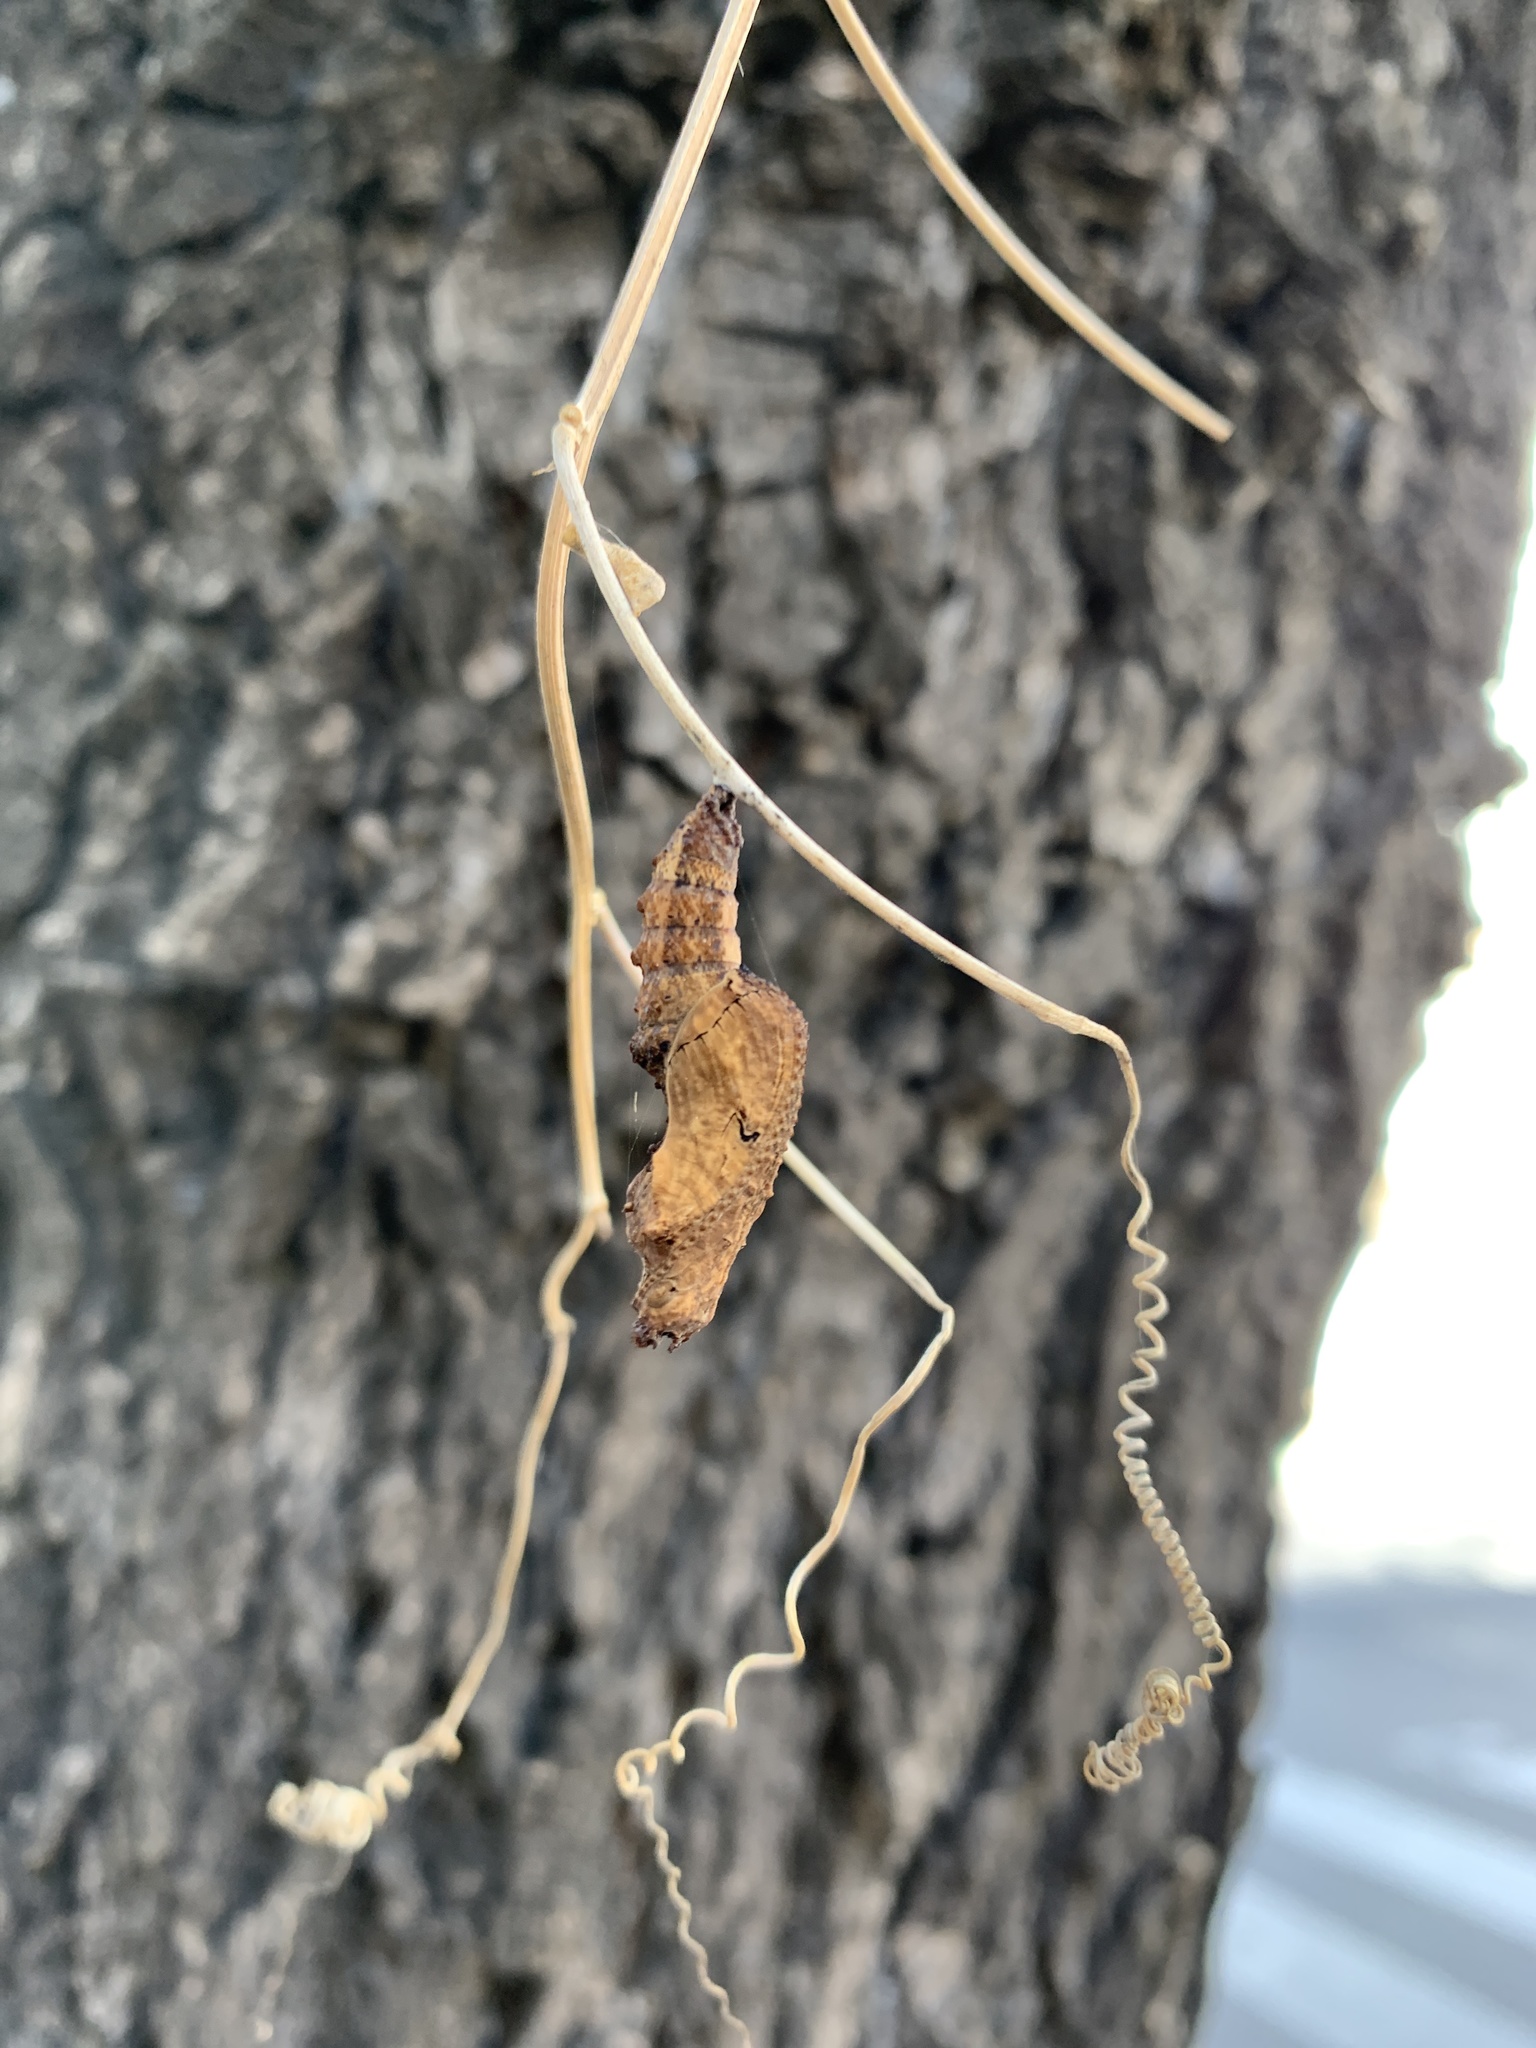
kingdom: Animalia
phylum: Arthropoda
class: Insecta
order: Lepidoptera
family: Nymphalidae
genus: Dione
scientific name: Dione vanillae
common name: Gulf fritillary
